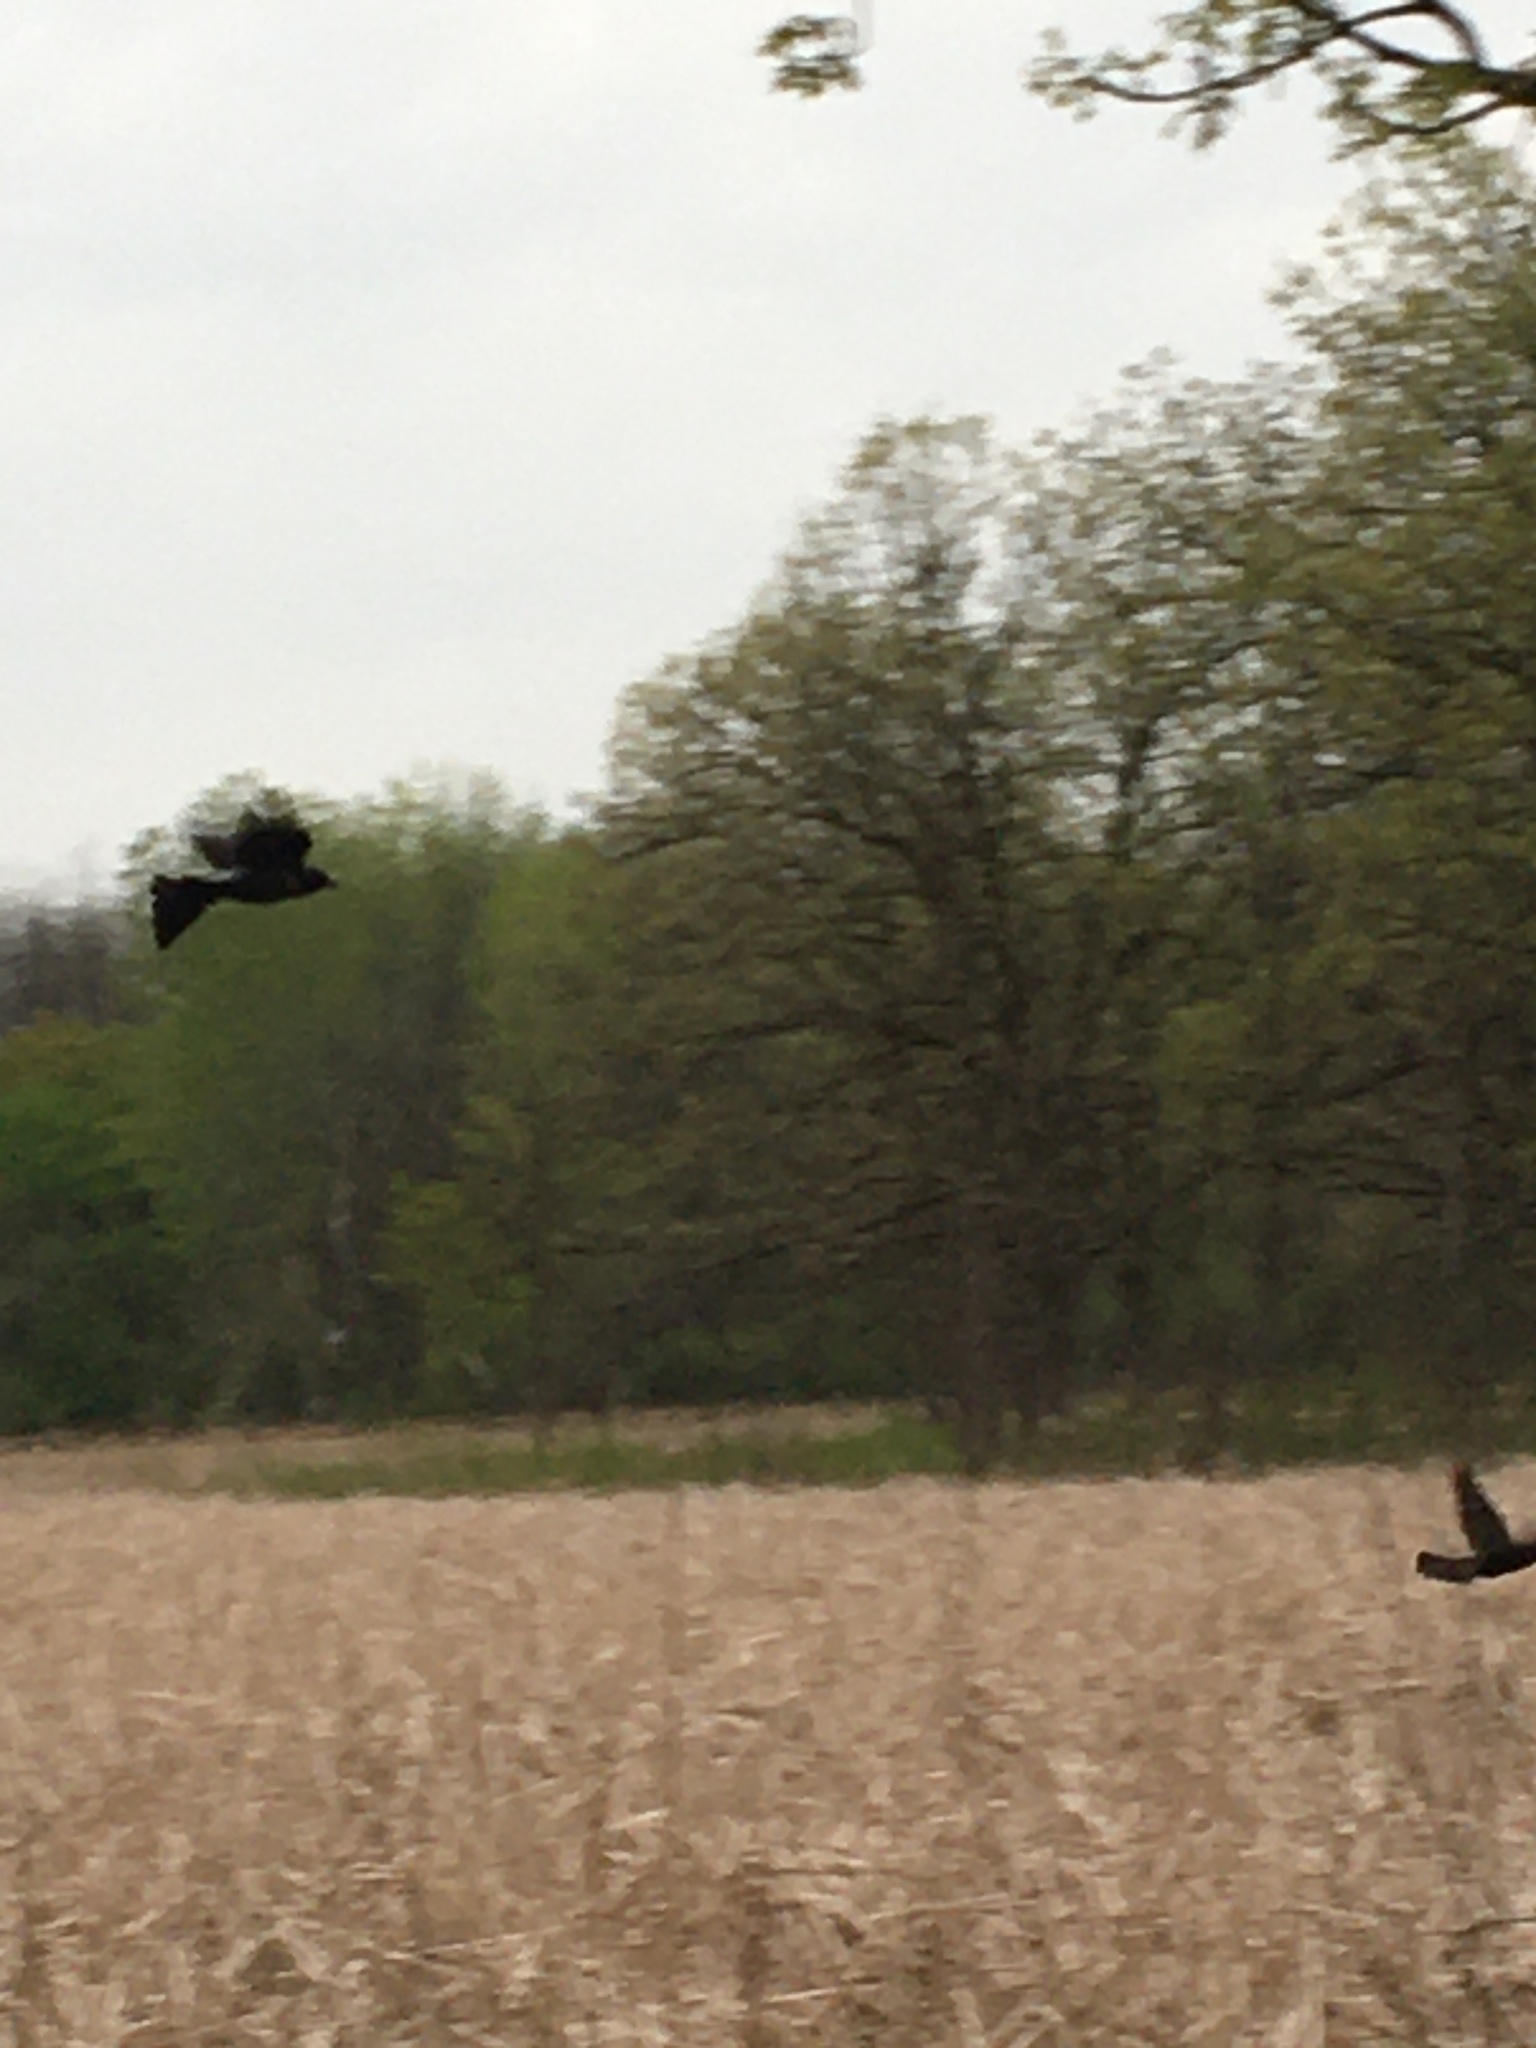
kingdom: Animalia
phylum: Chordata
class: Aves
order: Passeriformes
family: Icteridae
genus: Quiscalus
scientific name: Quiscalus quiscula
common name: Common grackle
